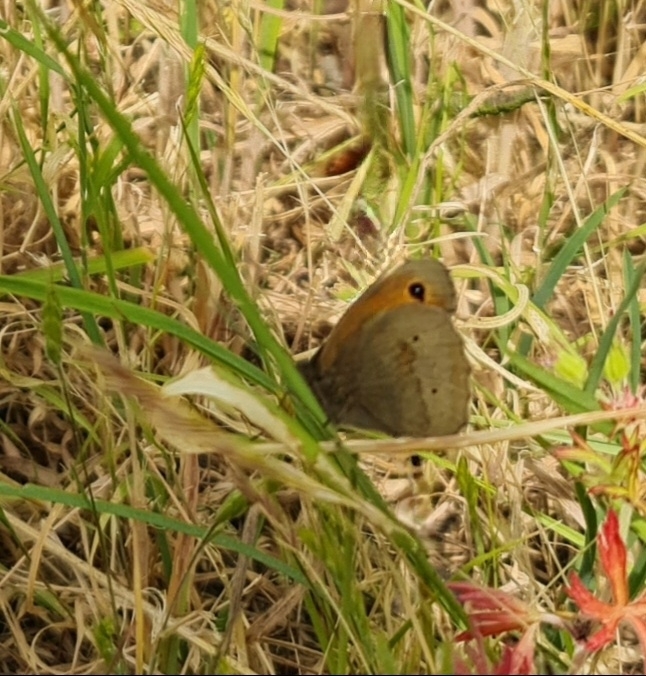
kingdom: Animalia
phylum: Arthropoda
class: Insecta
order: Lepidoptera
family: Nymphalidae
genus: Maniola
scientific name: Maniola jurtina
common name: Meadow brown
